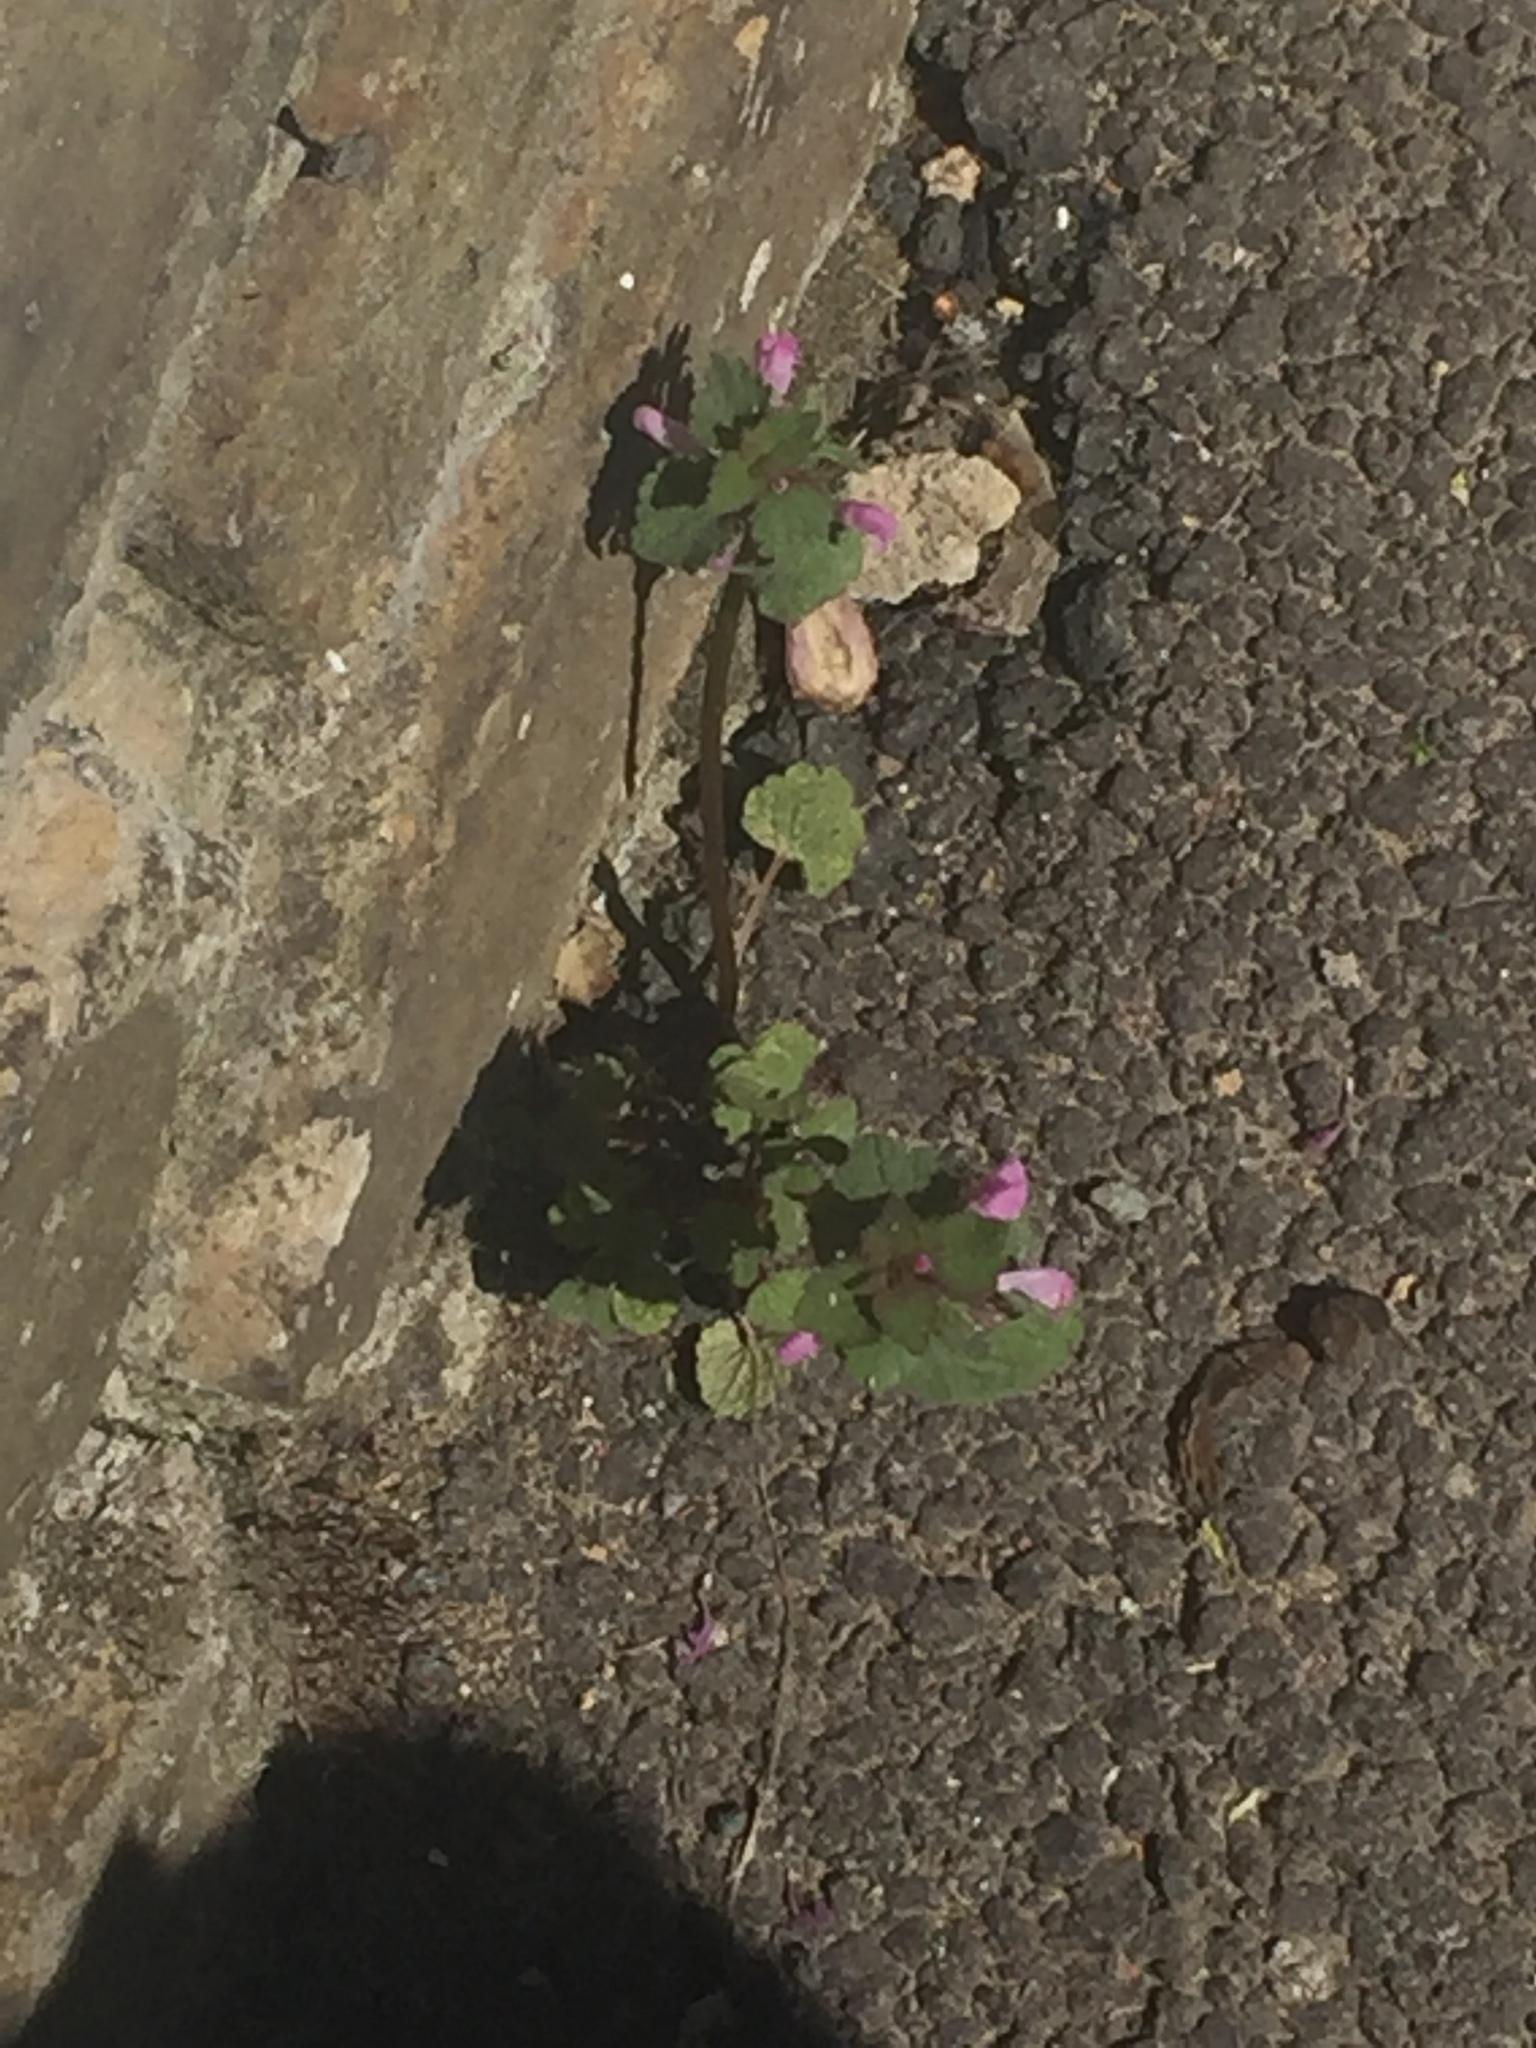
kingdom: Plantae
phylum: Tracheophyta
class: Magnoliopsida
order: Lamiales
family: Lamiaceae
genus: Lamium
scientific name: Lamium purpureum
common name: Red dead-nettle
